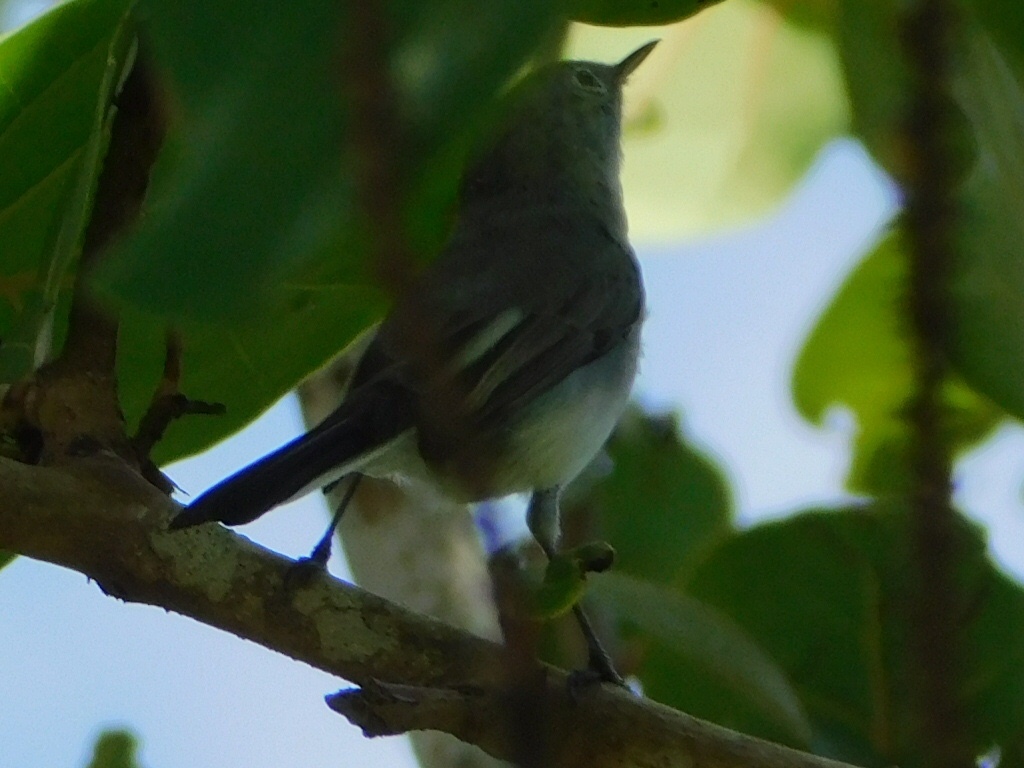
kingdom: Animalia
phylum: Chordata
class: Aves
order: Passeriformes
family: Polioptilidae
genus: Polioptila
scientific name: Polioptila caerulea
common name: Blue-gray gnatcatcher
